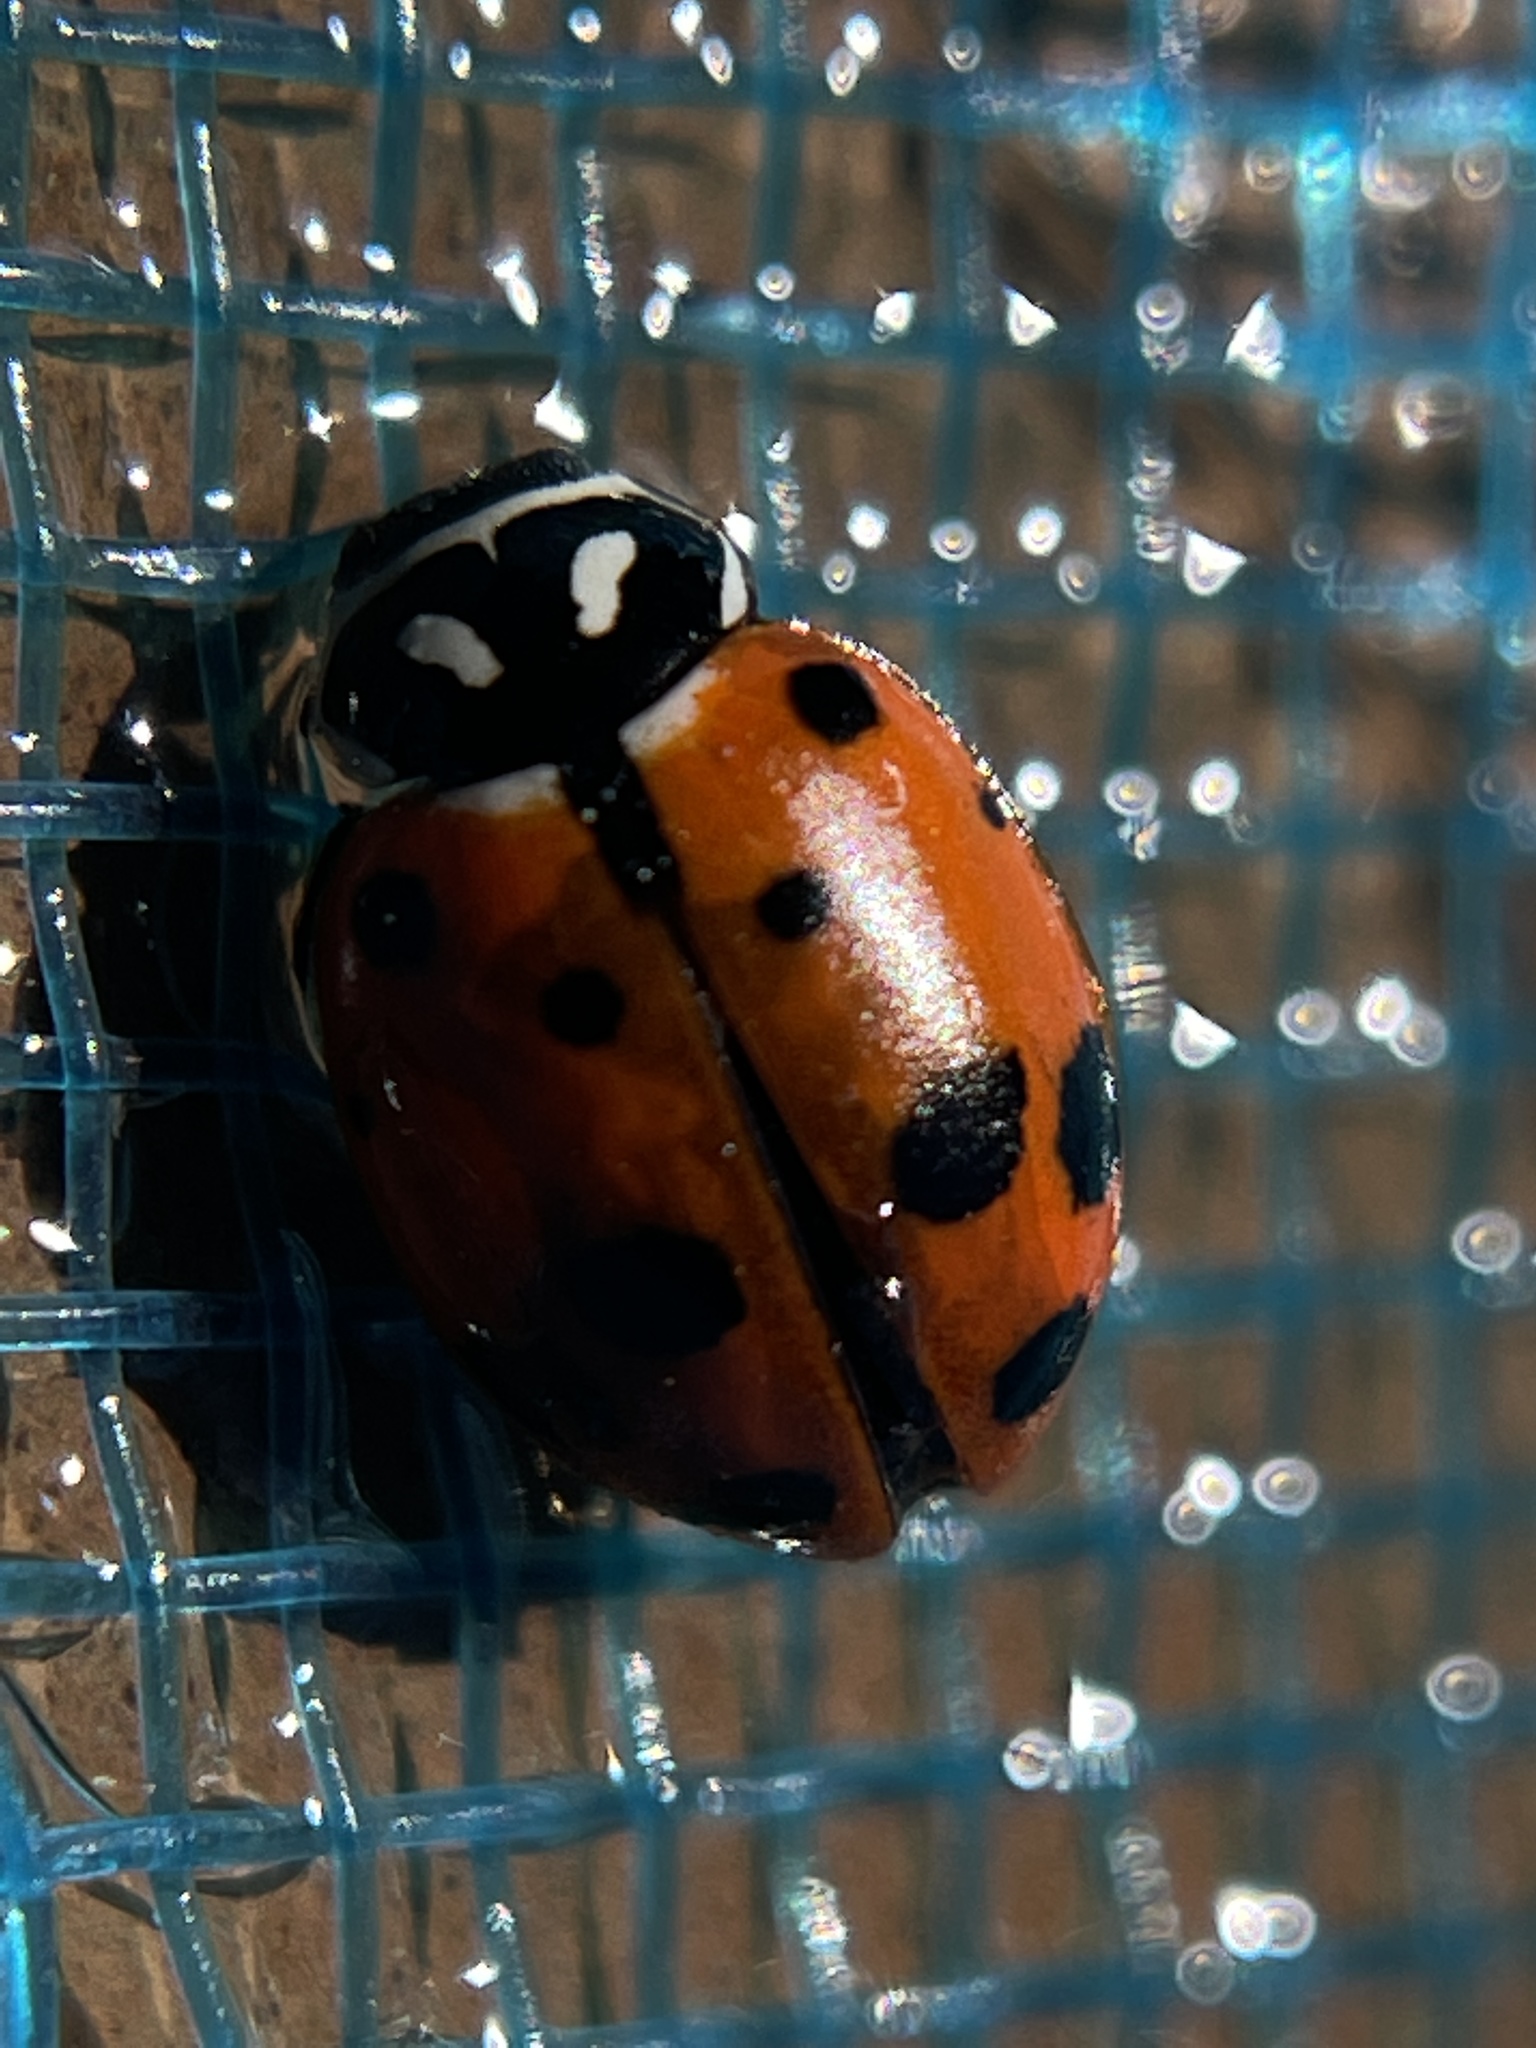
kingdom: Animalia
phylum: Arthropoda
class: Insecta
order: Coleoptera
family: Coccinellidae
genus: Hippodamia
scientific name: Hippodamia convergens
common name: Convergent lady beetle
